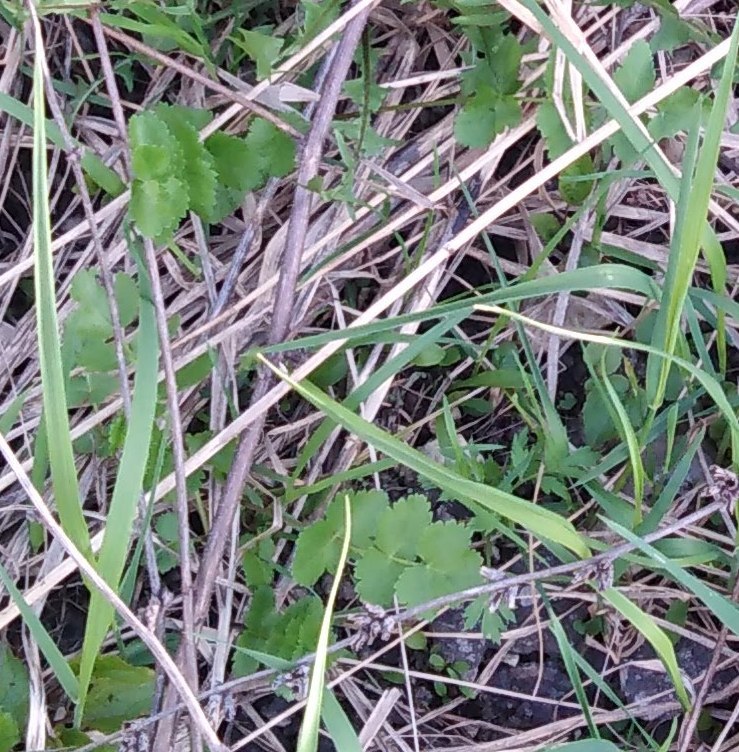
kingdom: Plantae
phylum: Tracheophyta
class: Magnoliopsida
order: Apiales
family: Apiaceae
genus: Pimpinella
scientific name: Pimpinella saxifraga
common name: Burnet-saxifrage
